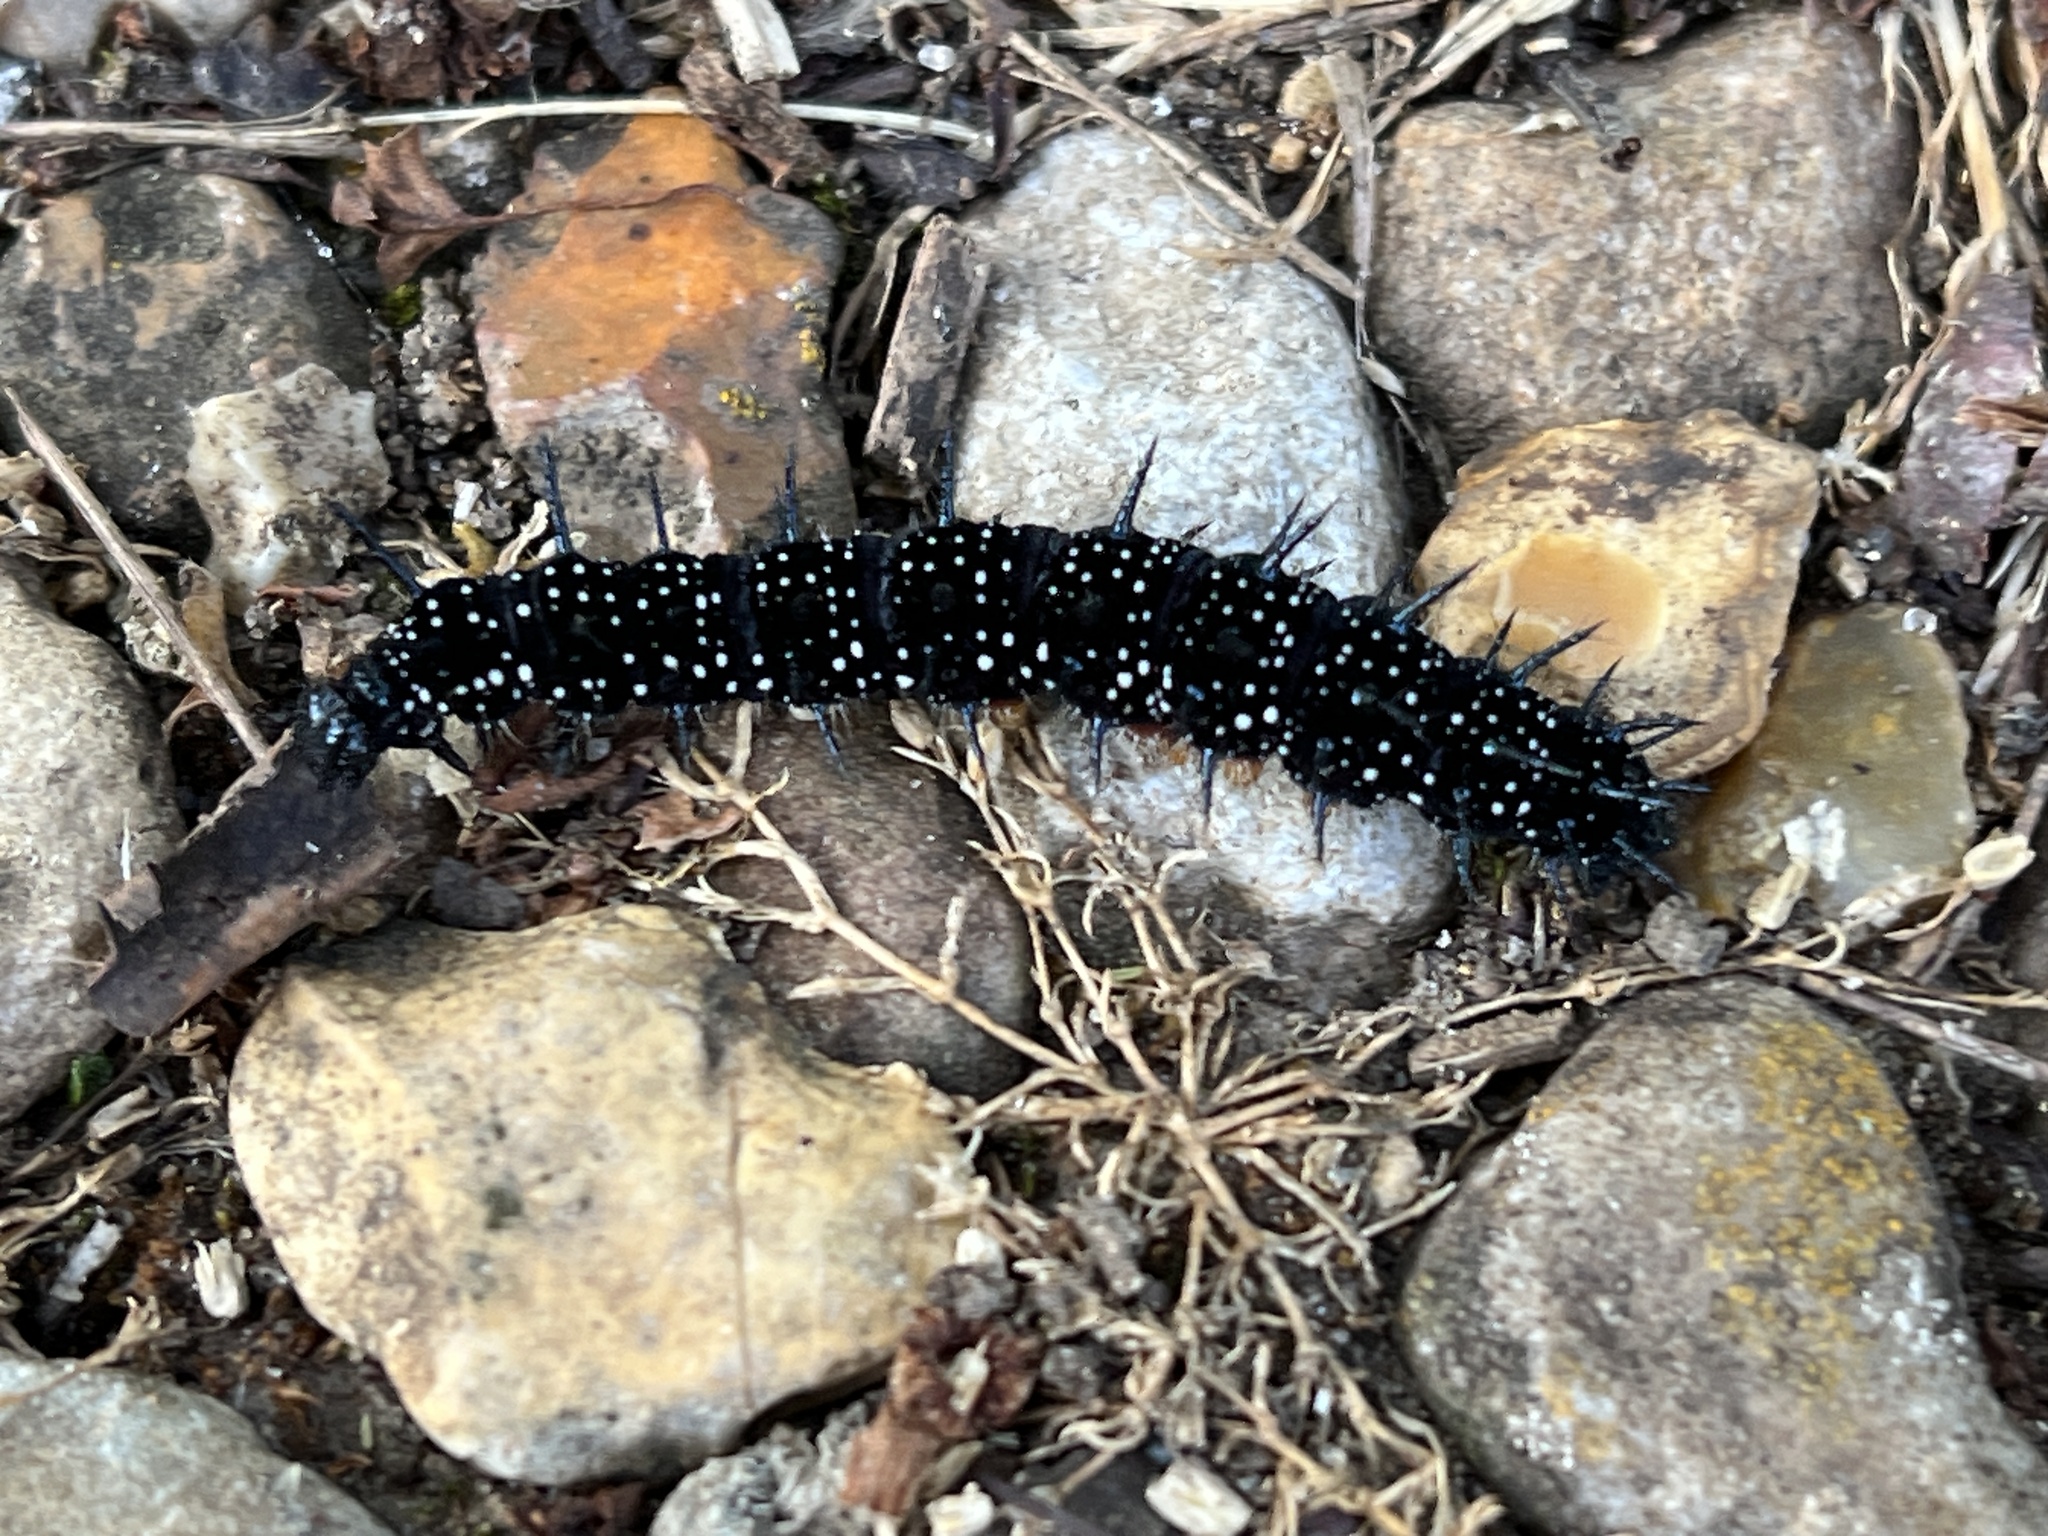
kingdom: Animalia
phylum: Arthropoda
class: Insecta
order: Lepidoptera
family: Nymphalidae
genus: Aglais
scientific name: Aglais io
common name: Peacock
